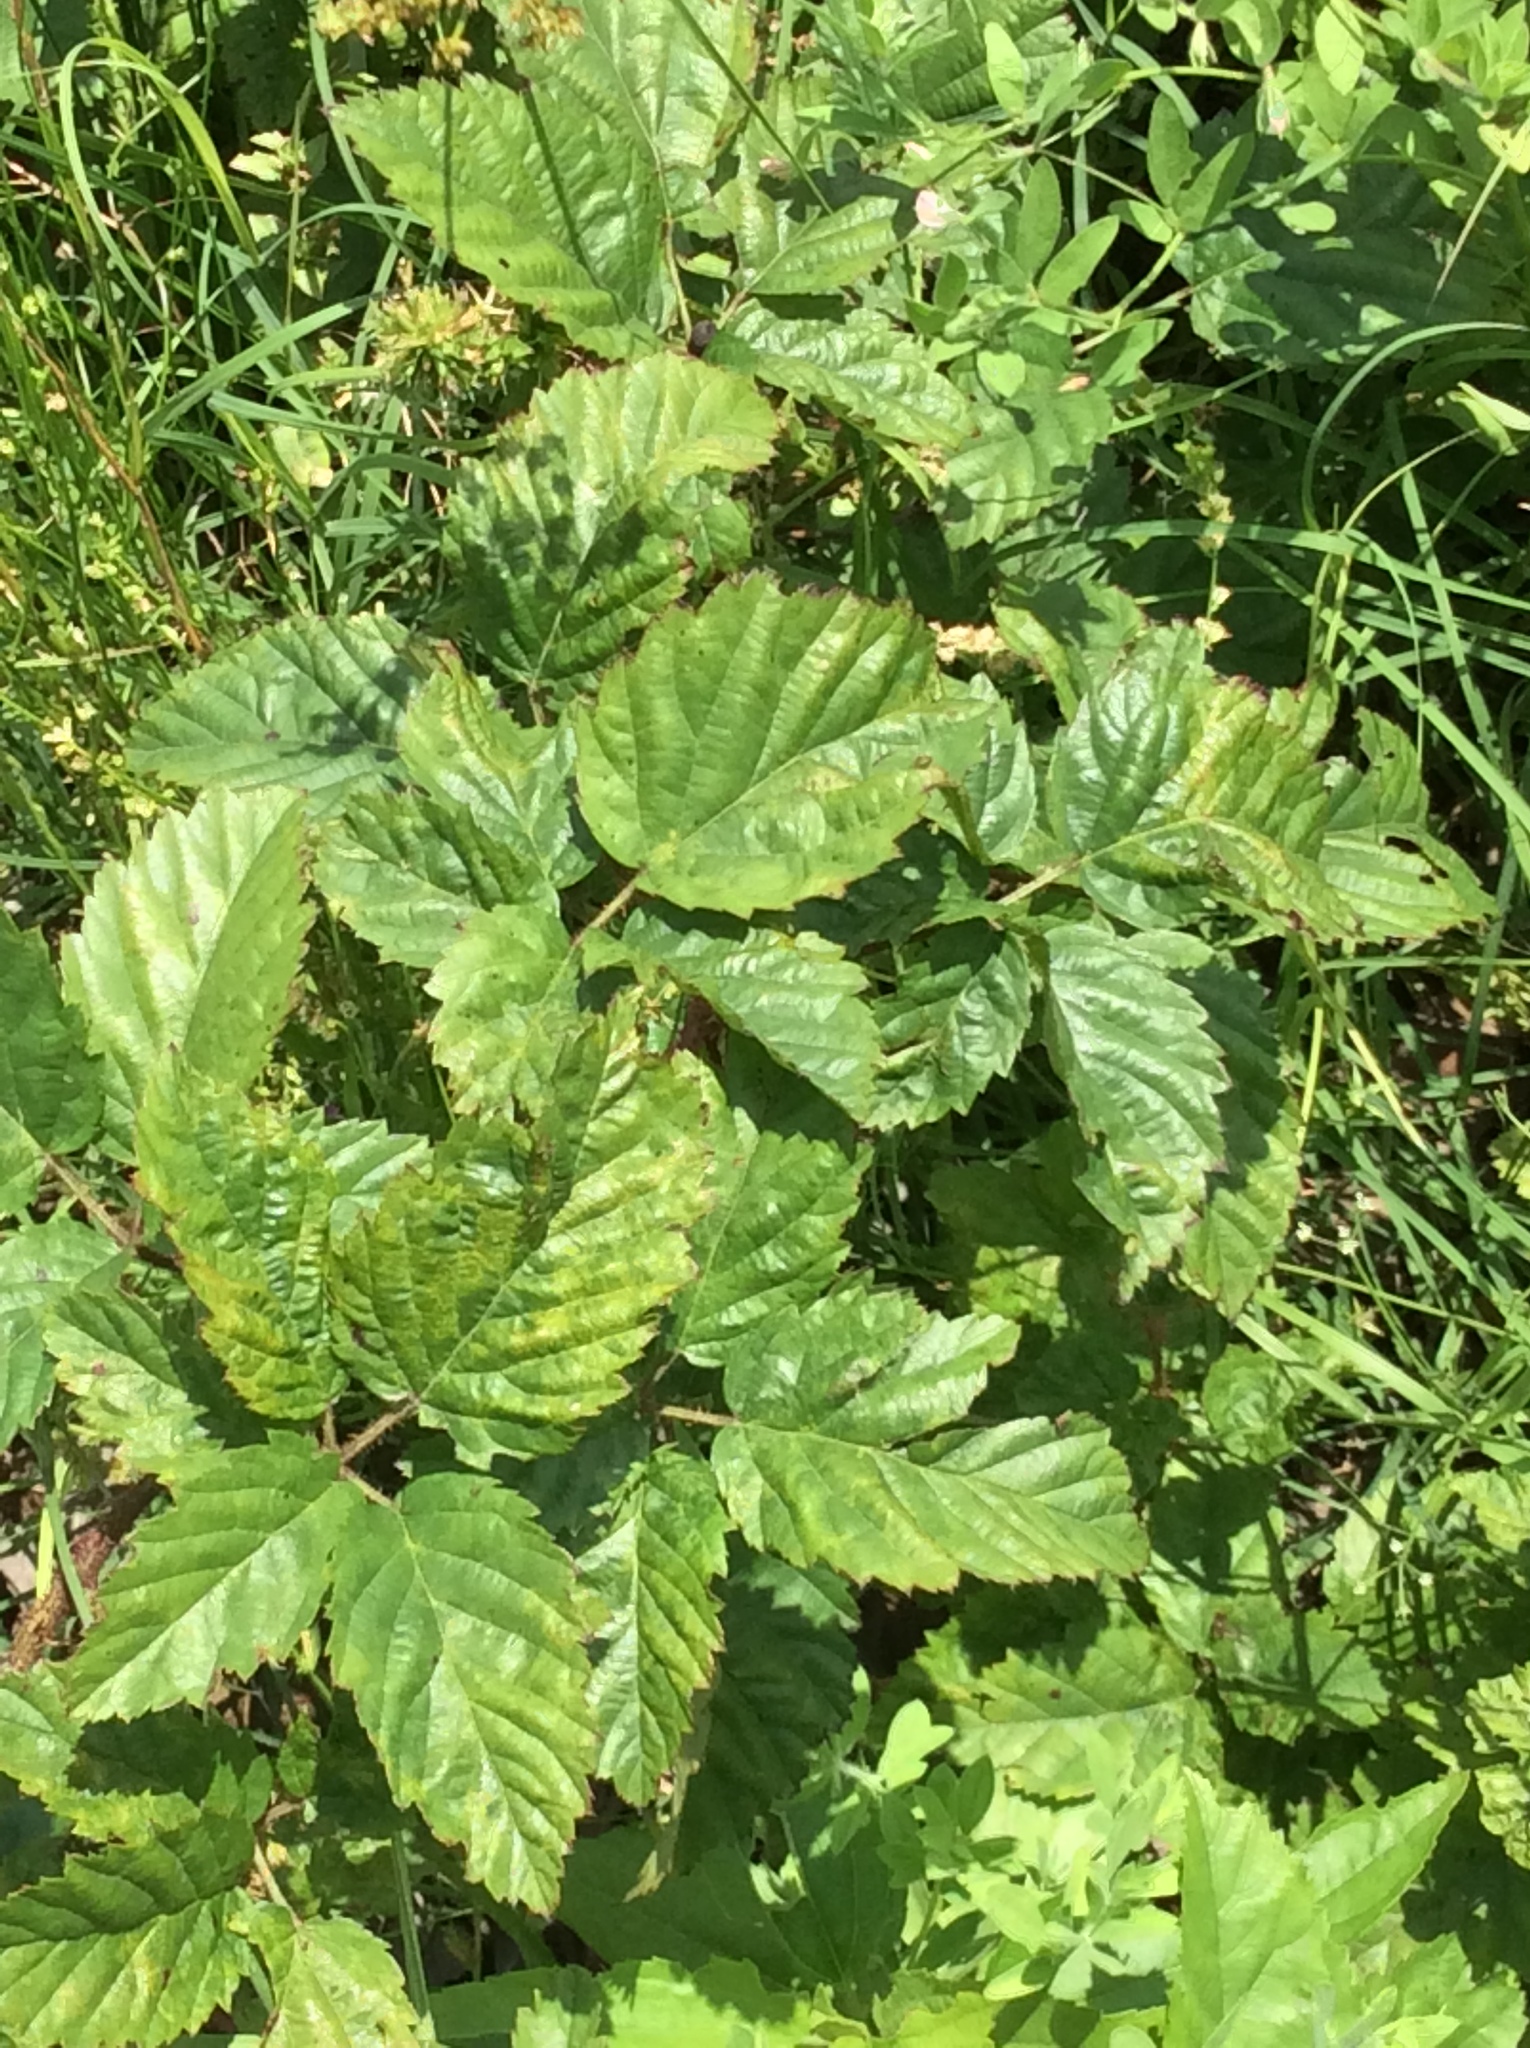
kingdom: Plantae
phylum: Tracheophyta
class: Magnoliopsida
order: Rosales
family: Rosaceae
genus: Rubus
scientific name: Rubus trivialis
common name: Southern dewberry
